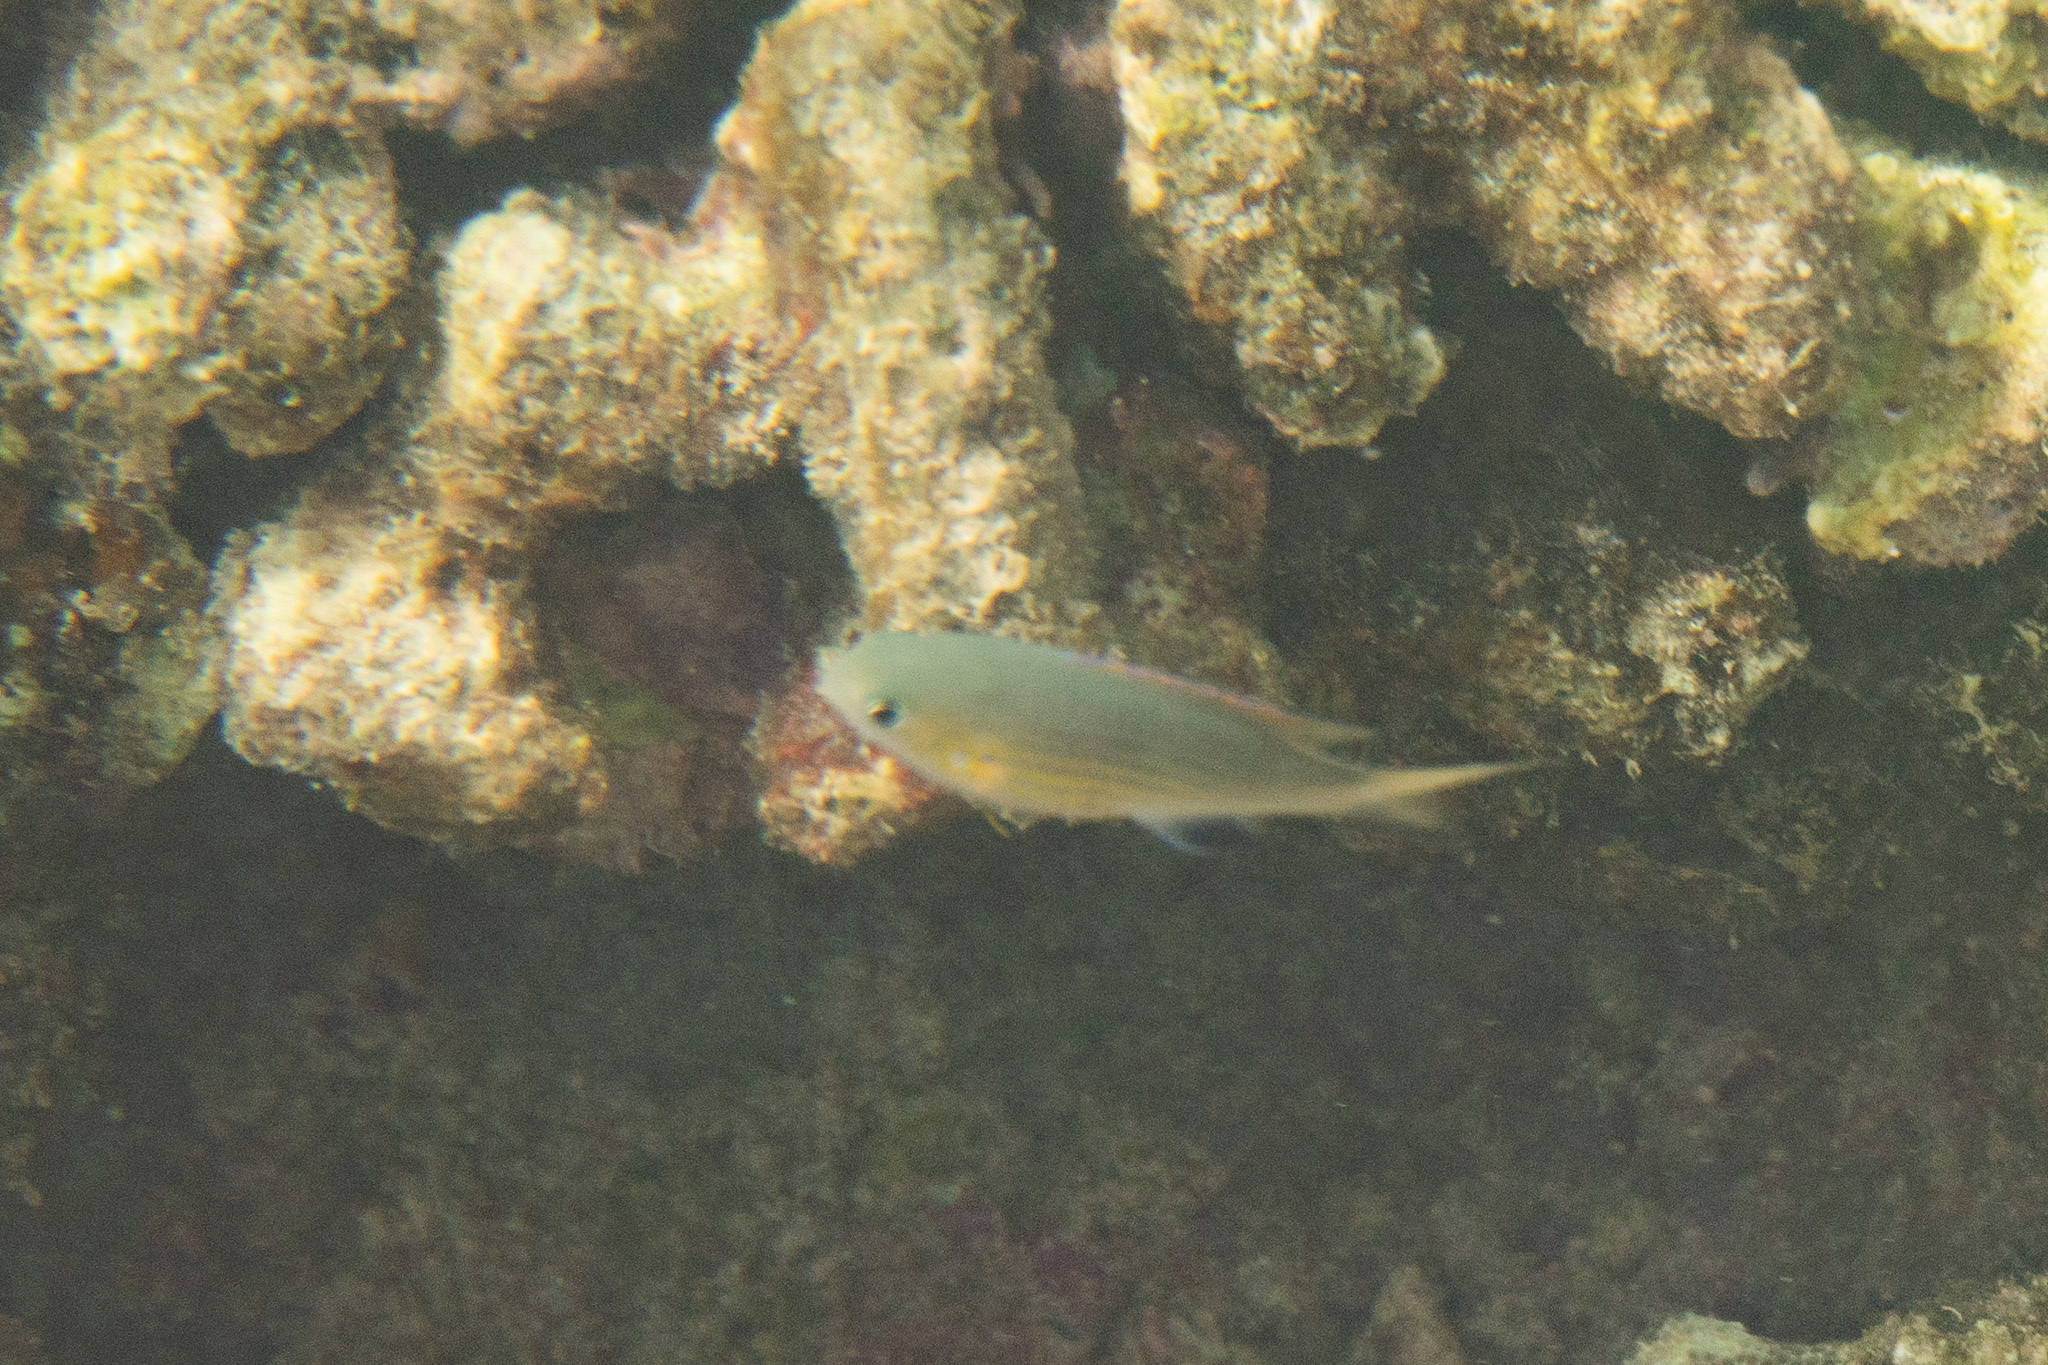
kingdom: Animalia
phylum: Chordata
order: Perciformes
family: Pomacentridae
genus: Chromis
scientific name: Chromis vanderbilti
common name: Vanderbilt's chromis
